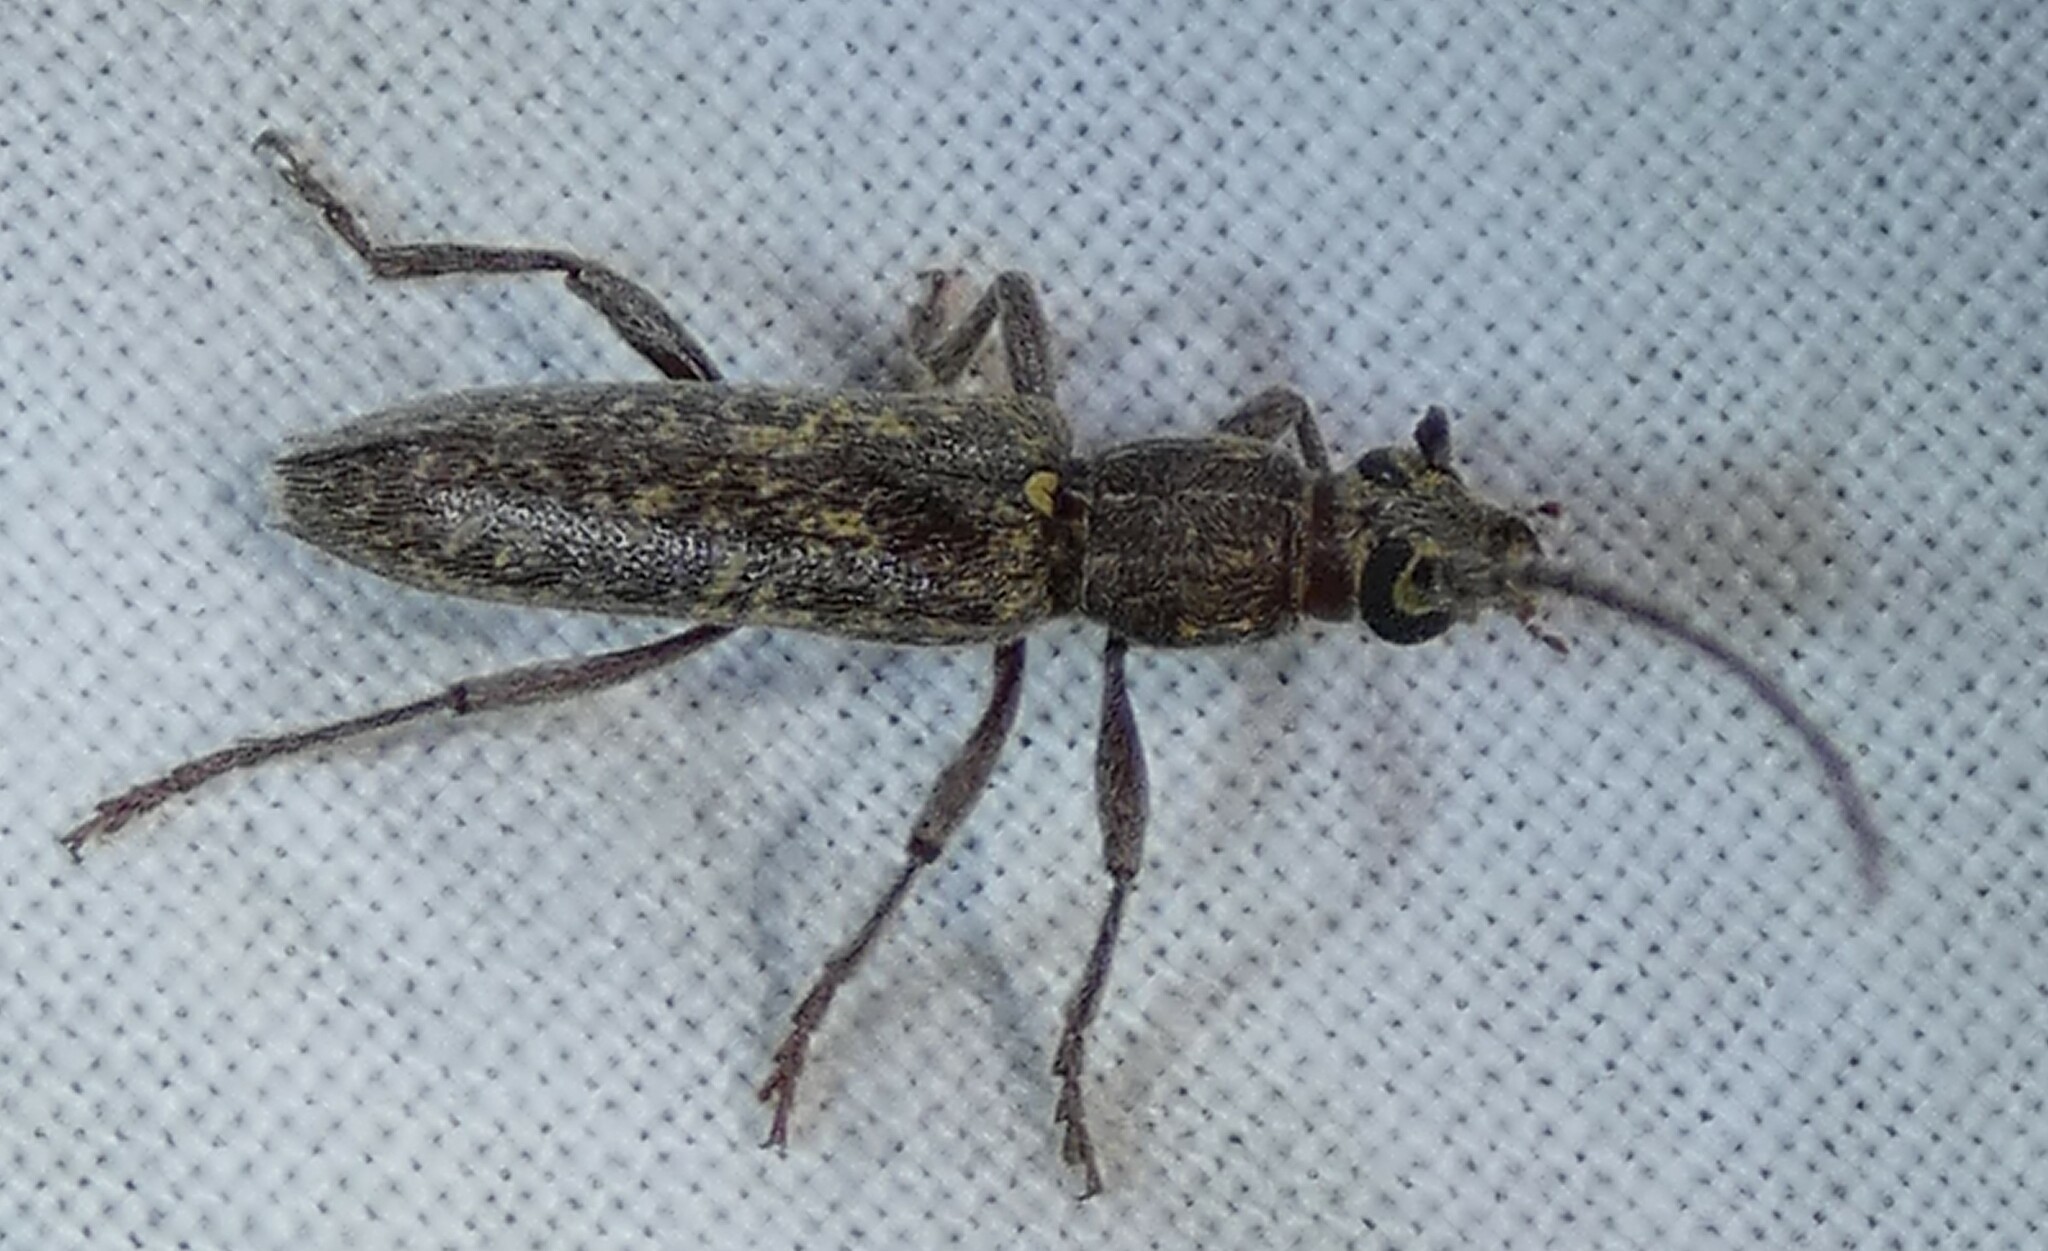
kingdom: Animalia
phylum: Arthropoda
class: Insecta
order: Coleoptera
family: Cerambycidae
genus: Anelaphus
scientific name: Anelaphus villosus
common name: Twig pruner
